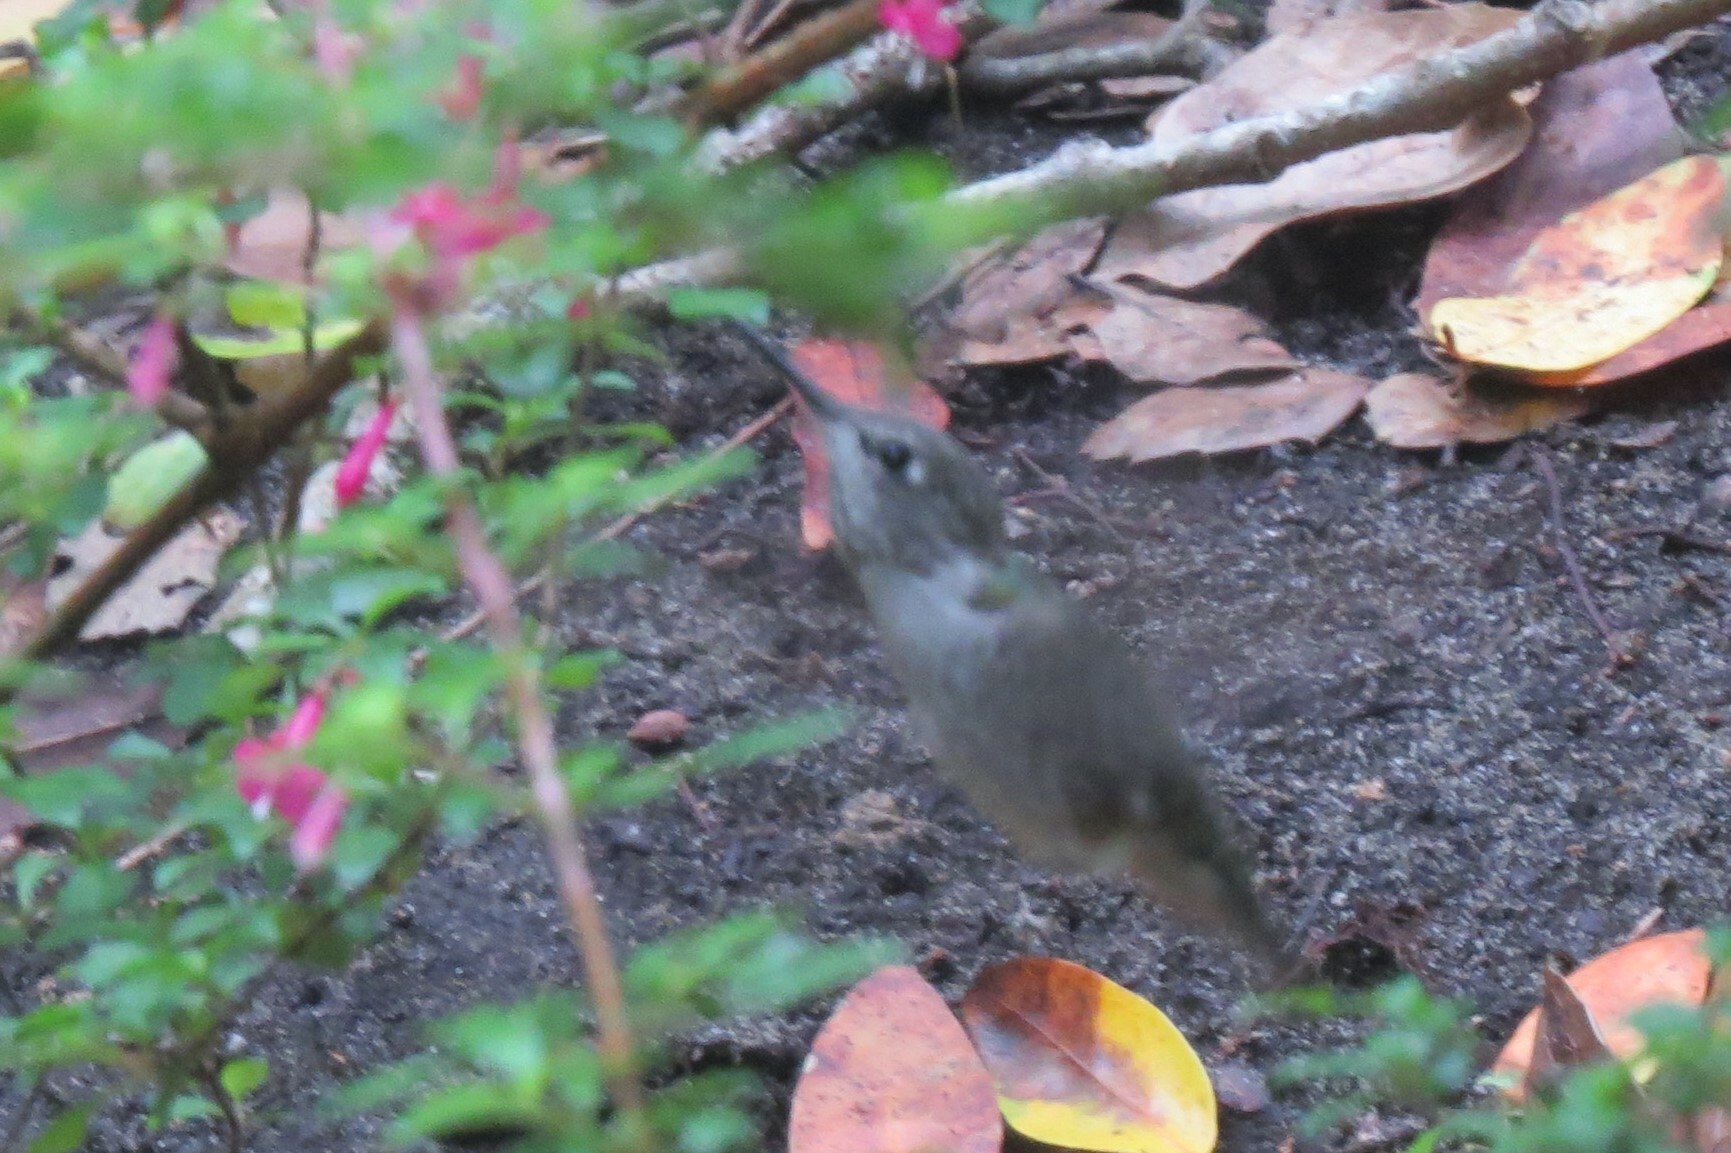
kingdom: Animalia
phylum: Chordata
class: Aves
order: Apodiformes
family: Trochilidae
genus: Calypte
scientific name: Calypte anna
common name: Anna's hummingbird
